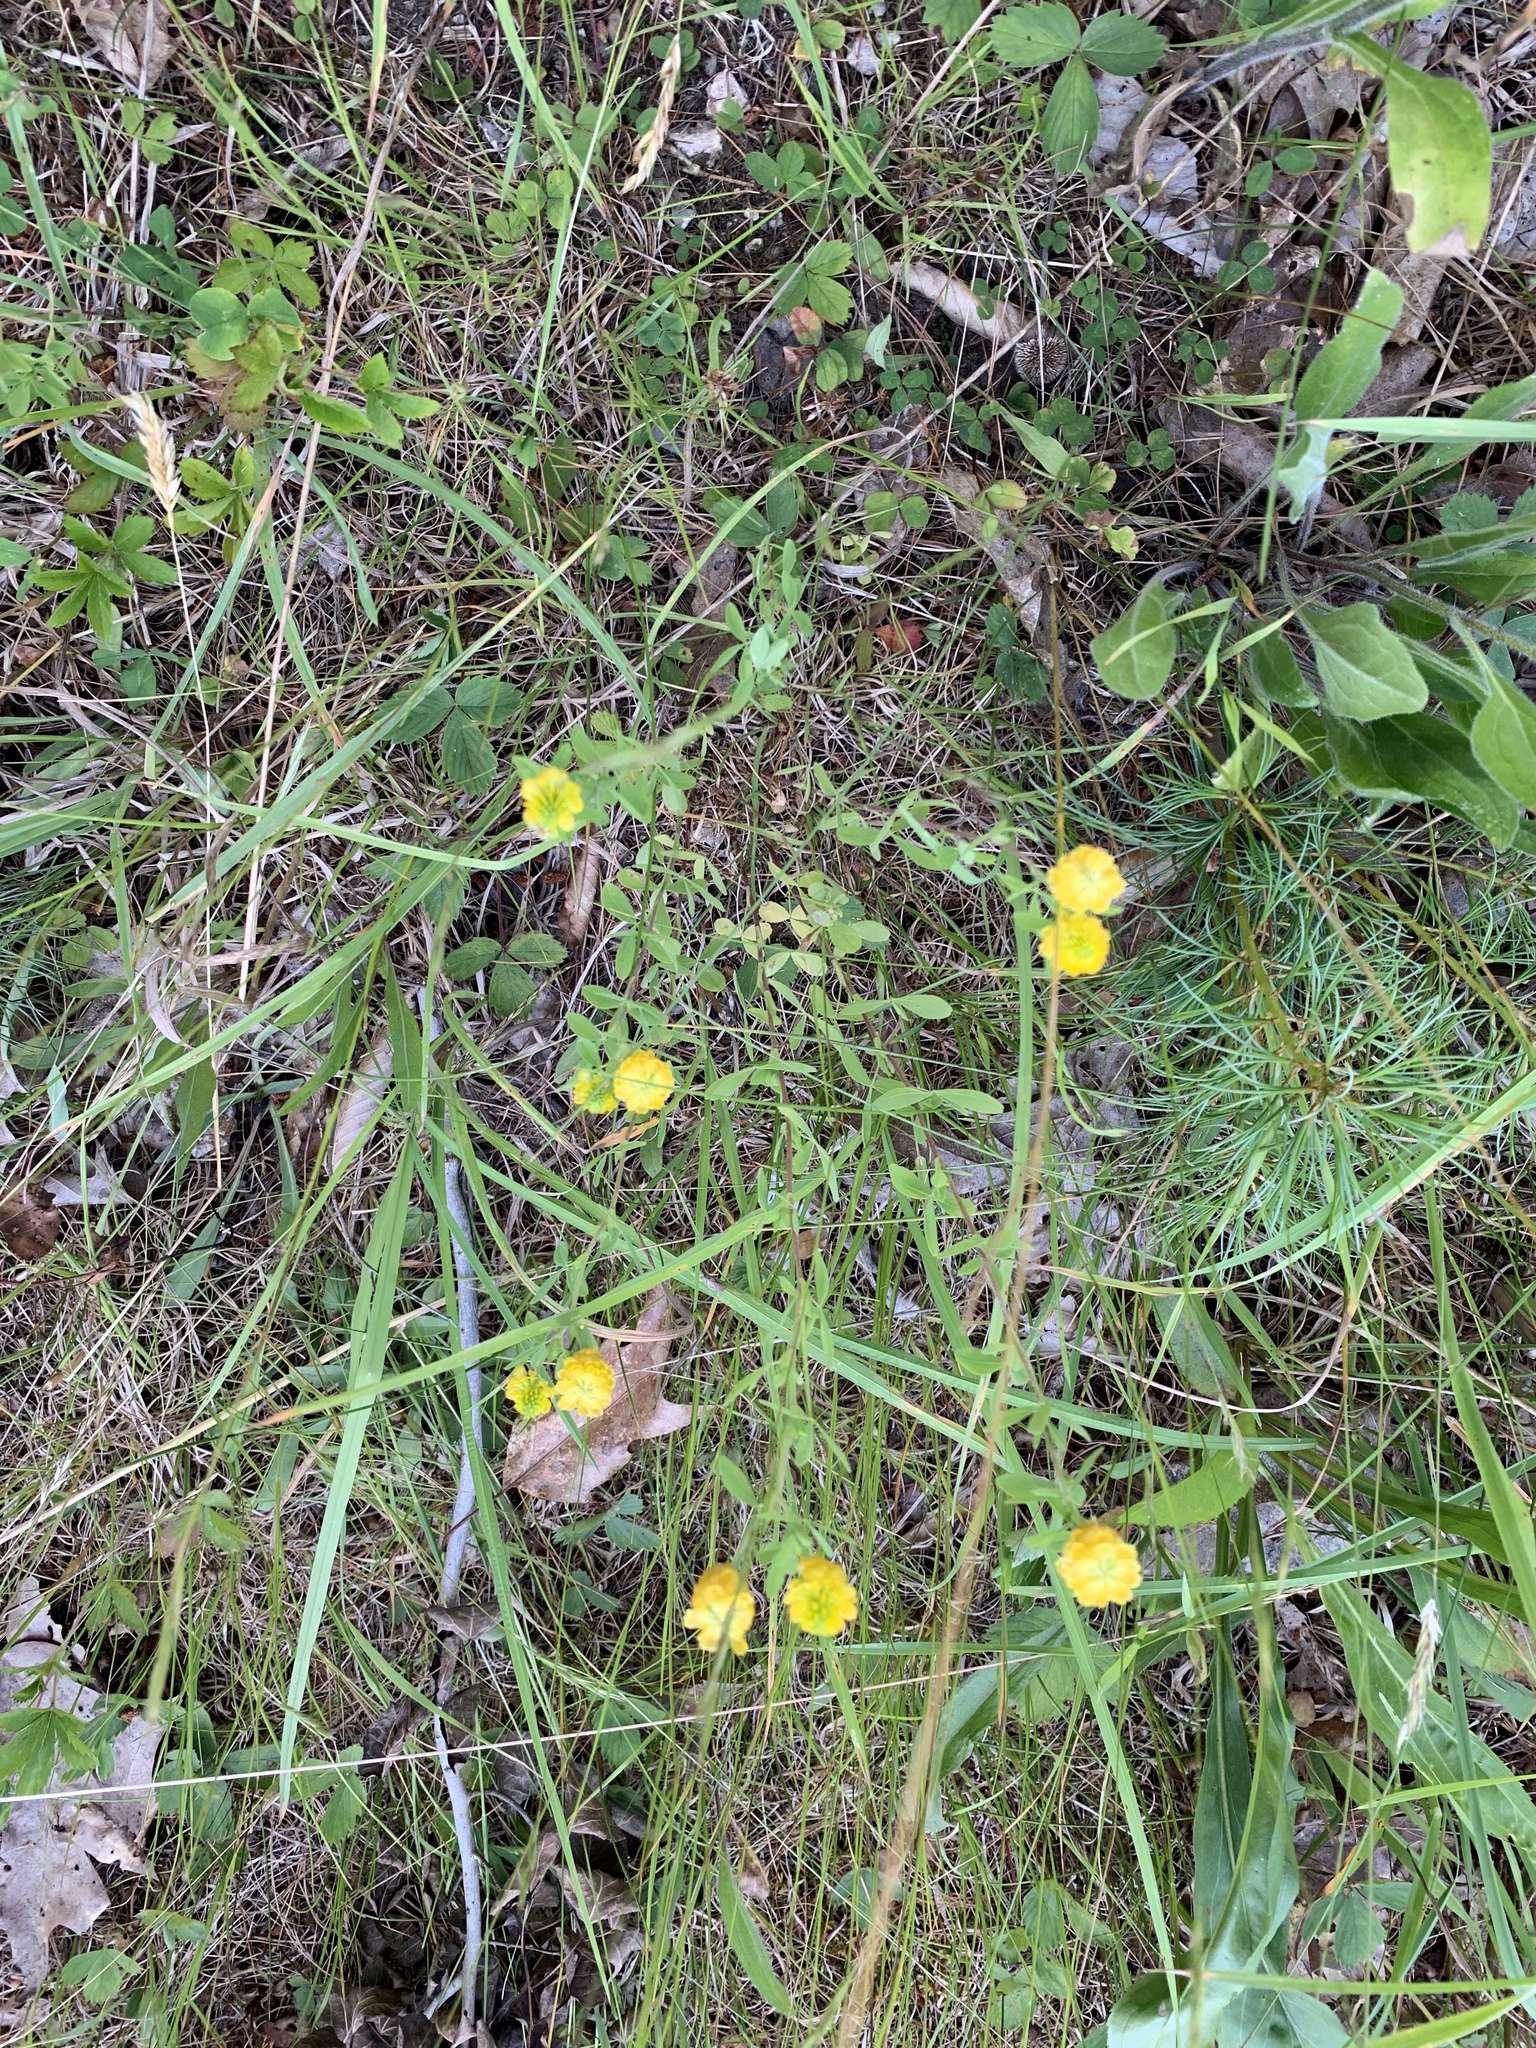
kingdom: Plantae
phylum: Tracheophyta
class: Magnoliopsida
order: Fabales
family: Fabaceae
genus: Trifolium
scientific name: Trifolium aureum
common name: Golden clover
